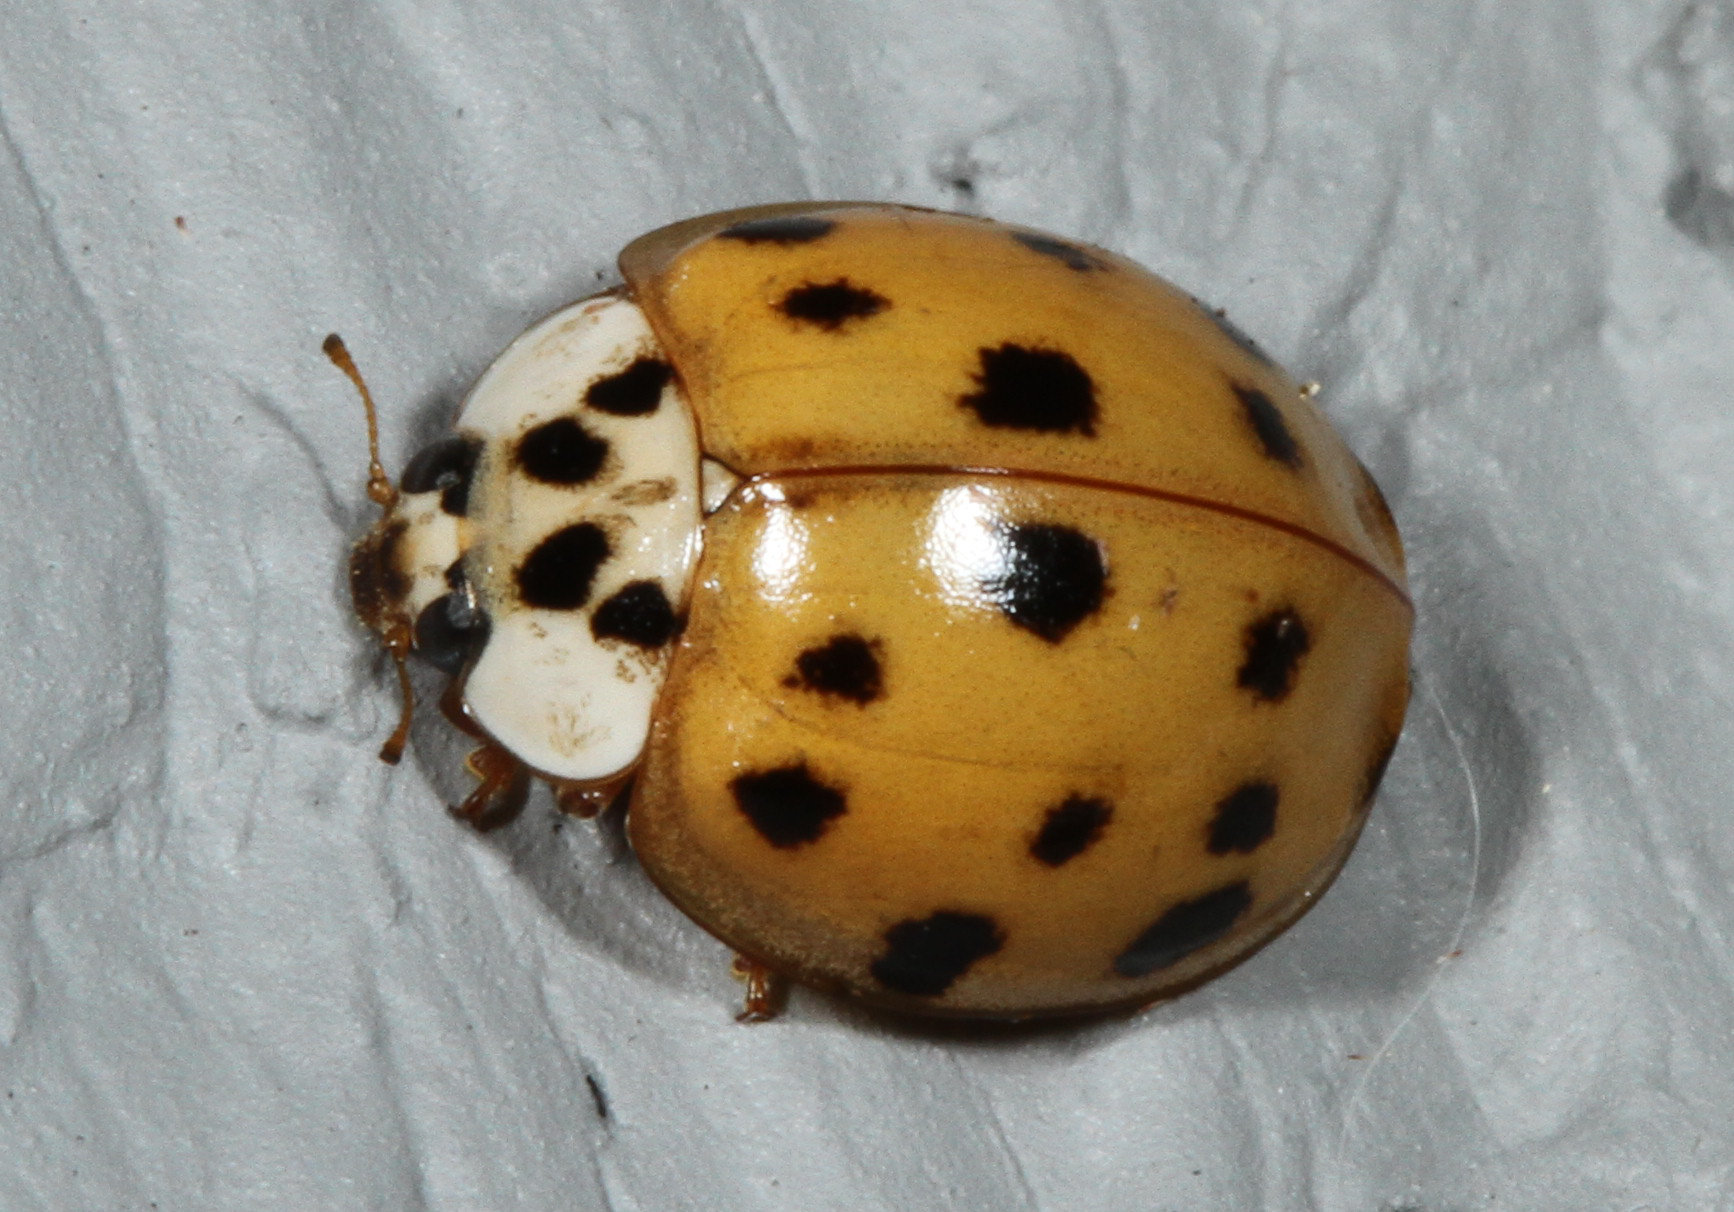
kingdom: Animalia
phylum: Arthropoda
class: Insecta
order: Coleoptera
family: Coccinellidae
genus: Harmonia
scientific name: Harmonia axyridis
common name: Harlequin ladybird
